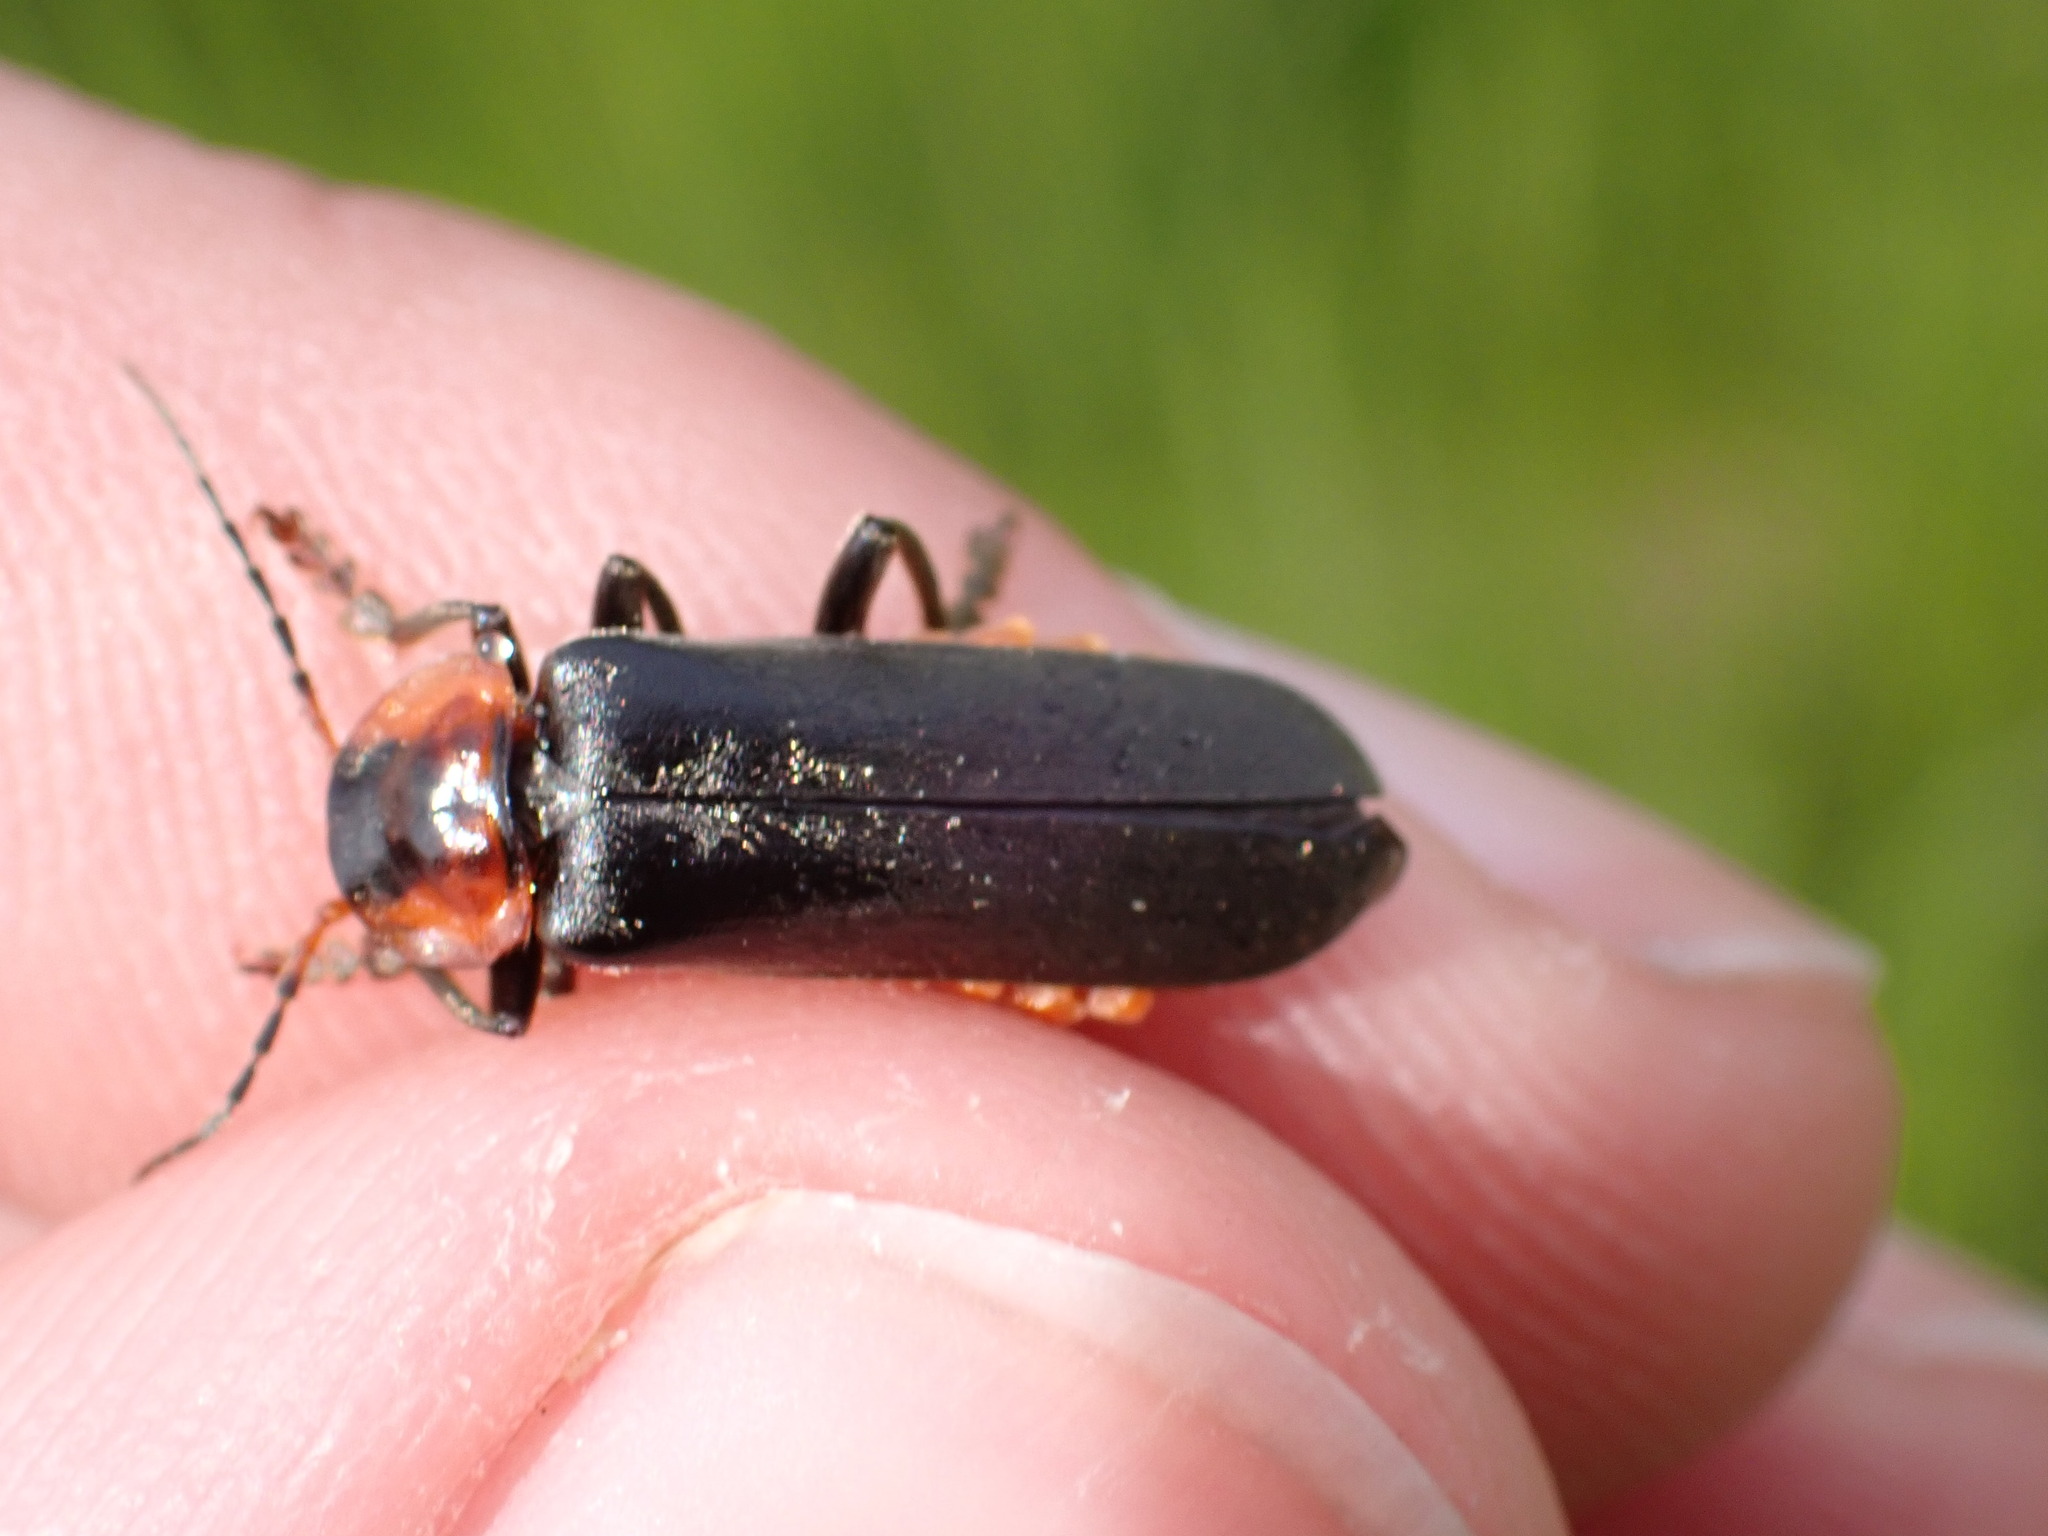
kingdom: Animalia
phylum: Arthropoda
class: Insecta
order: Coleoptera
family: Cantharidae
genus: Cantharis
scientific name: Cantharis fusca
